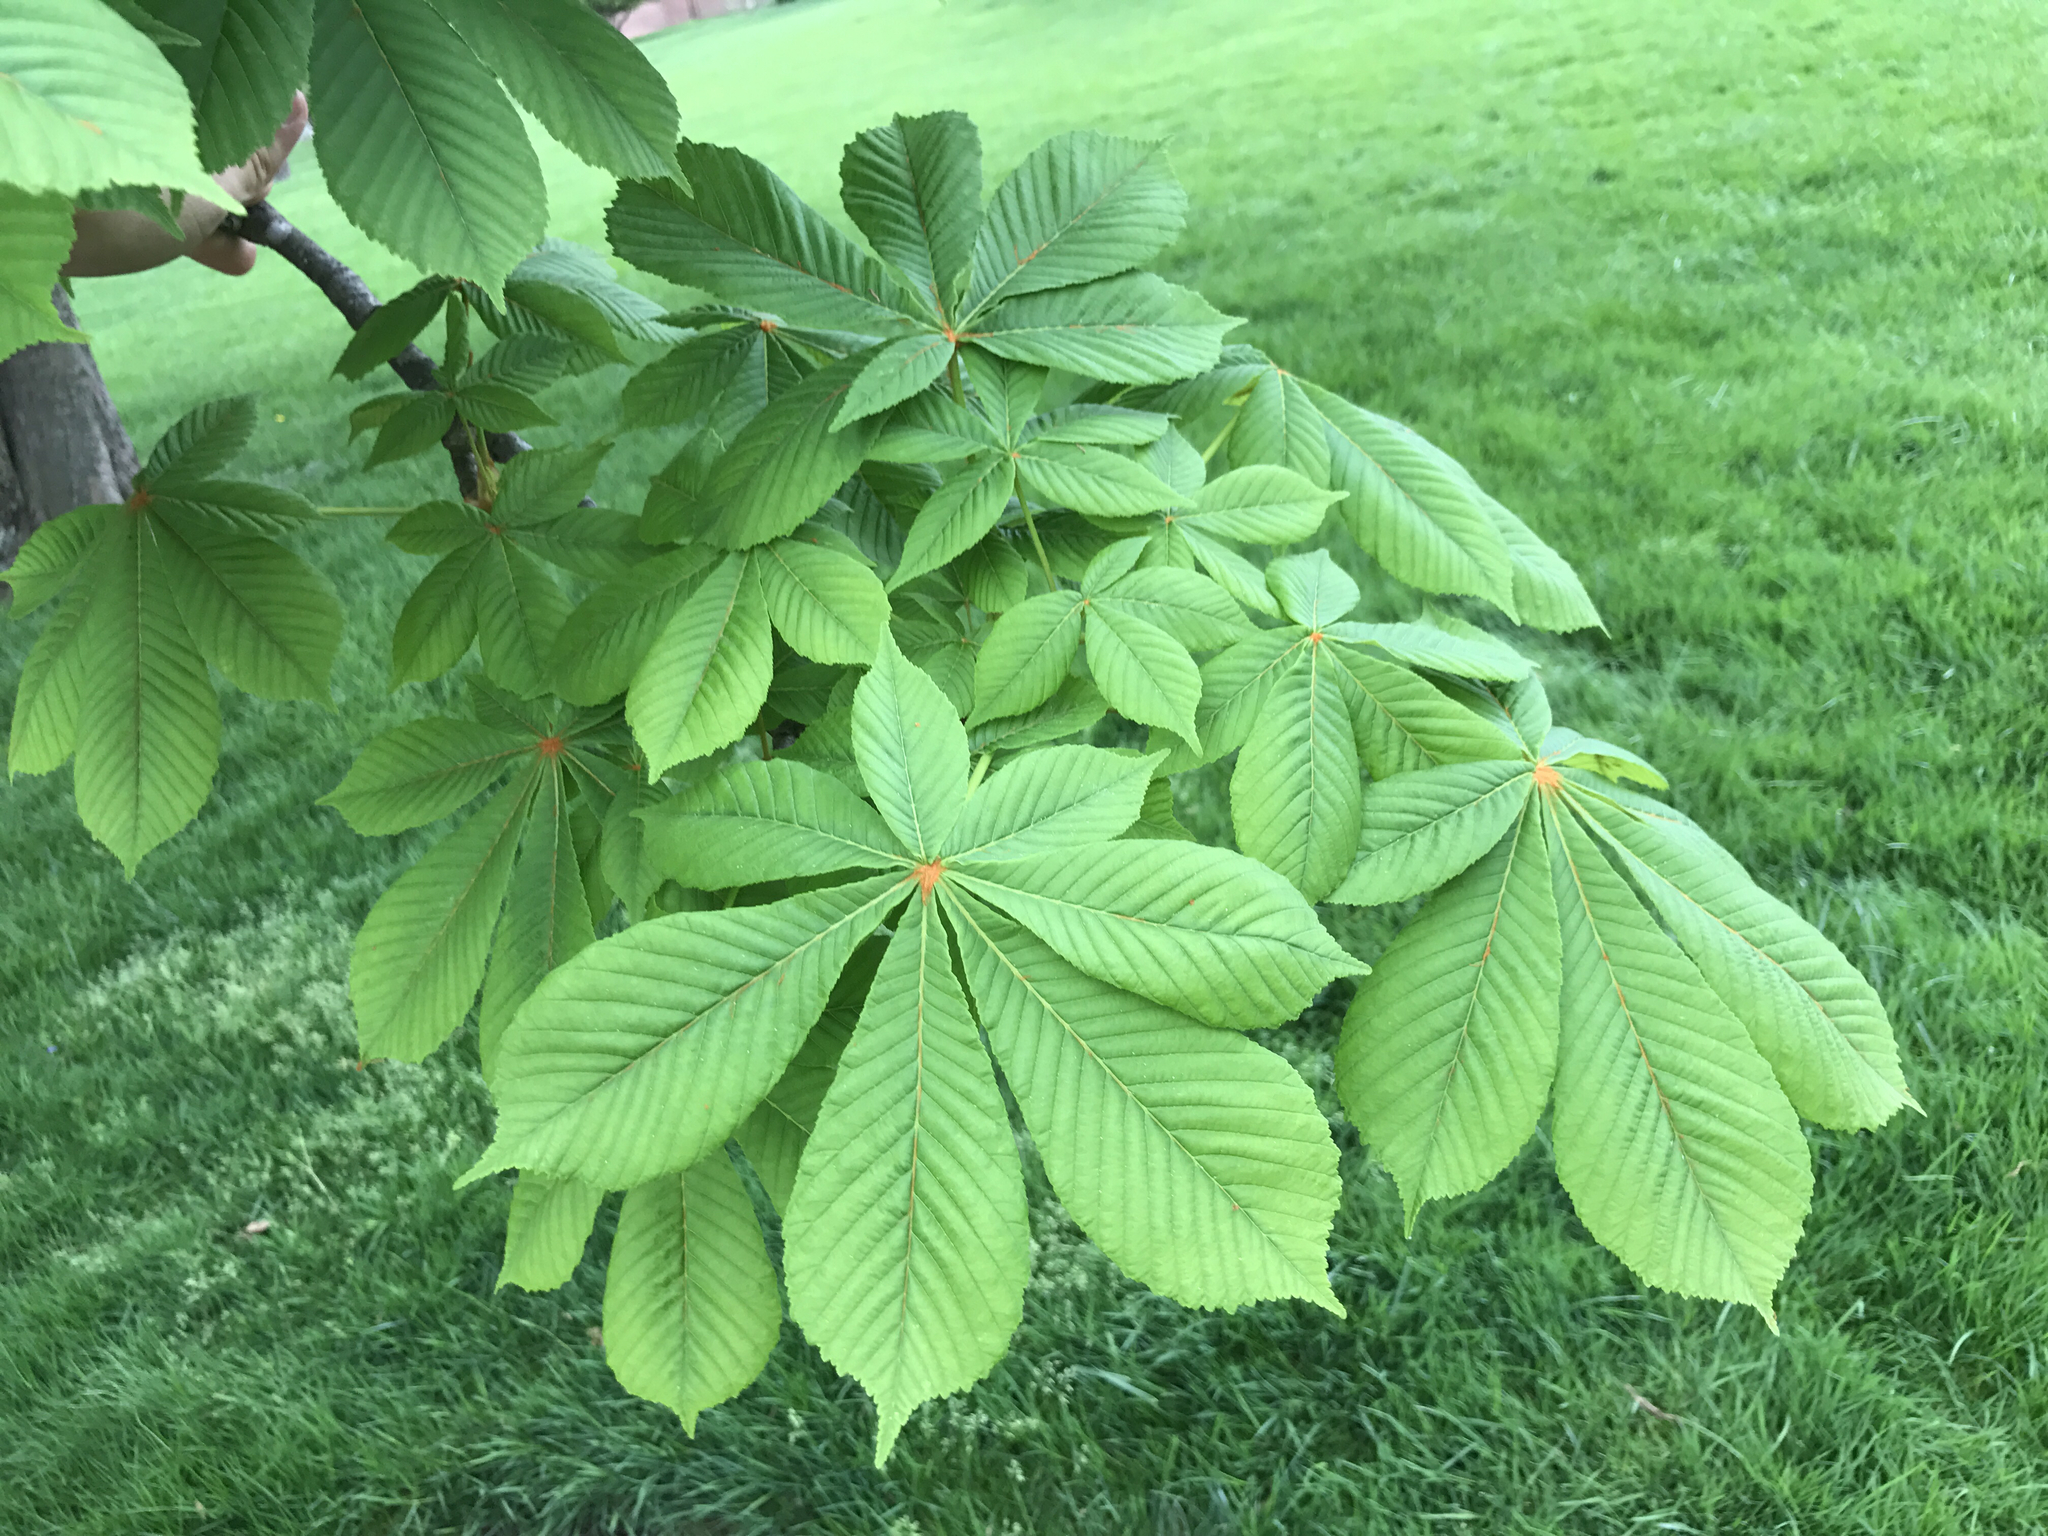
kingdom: Plantae
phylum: Tracheophyta
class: Magnoliopsida
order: Sapindales
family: Sapindaceae
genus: Aesculus
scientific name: Aesculus hippocastanum
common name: Horse-chestnut
